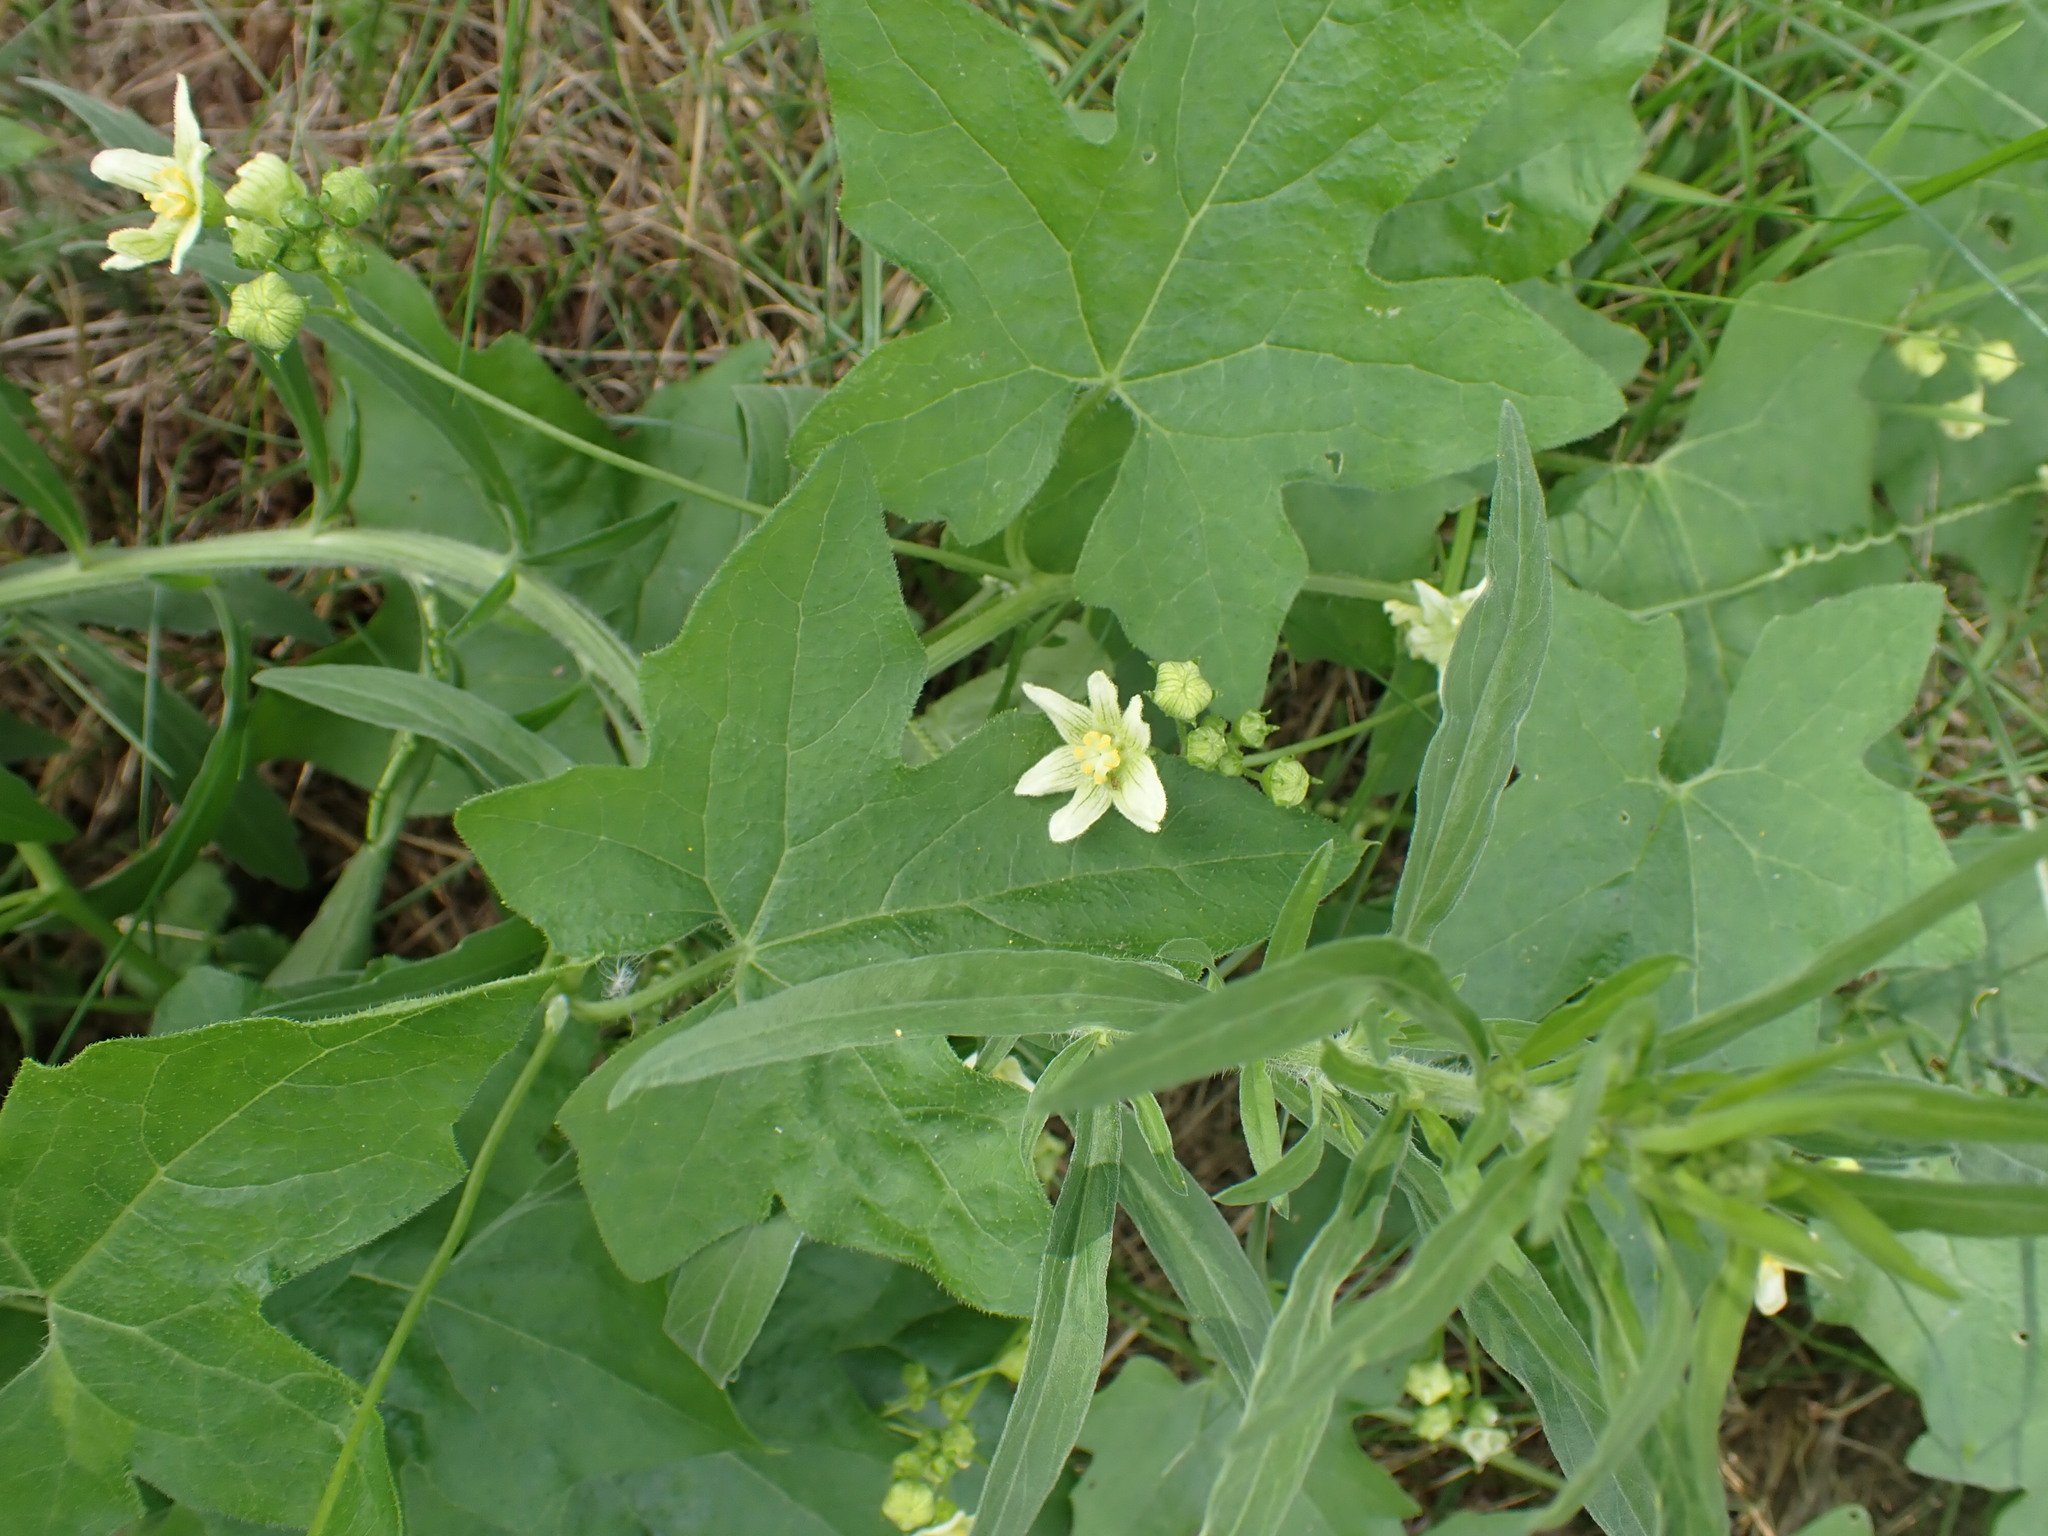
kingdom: Plantae
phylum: Tracheophyta
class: Magnoliopsida
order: Cucurbitales
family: Cucurbitaceae
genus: Bryonia
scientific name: Bryonia dioica
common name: White bryony
